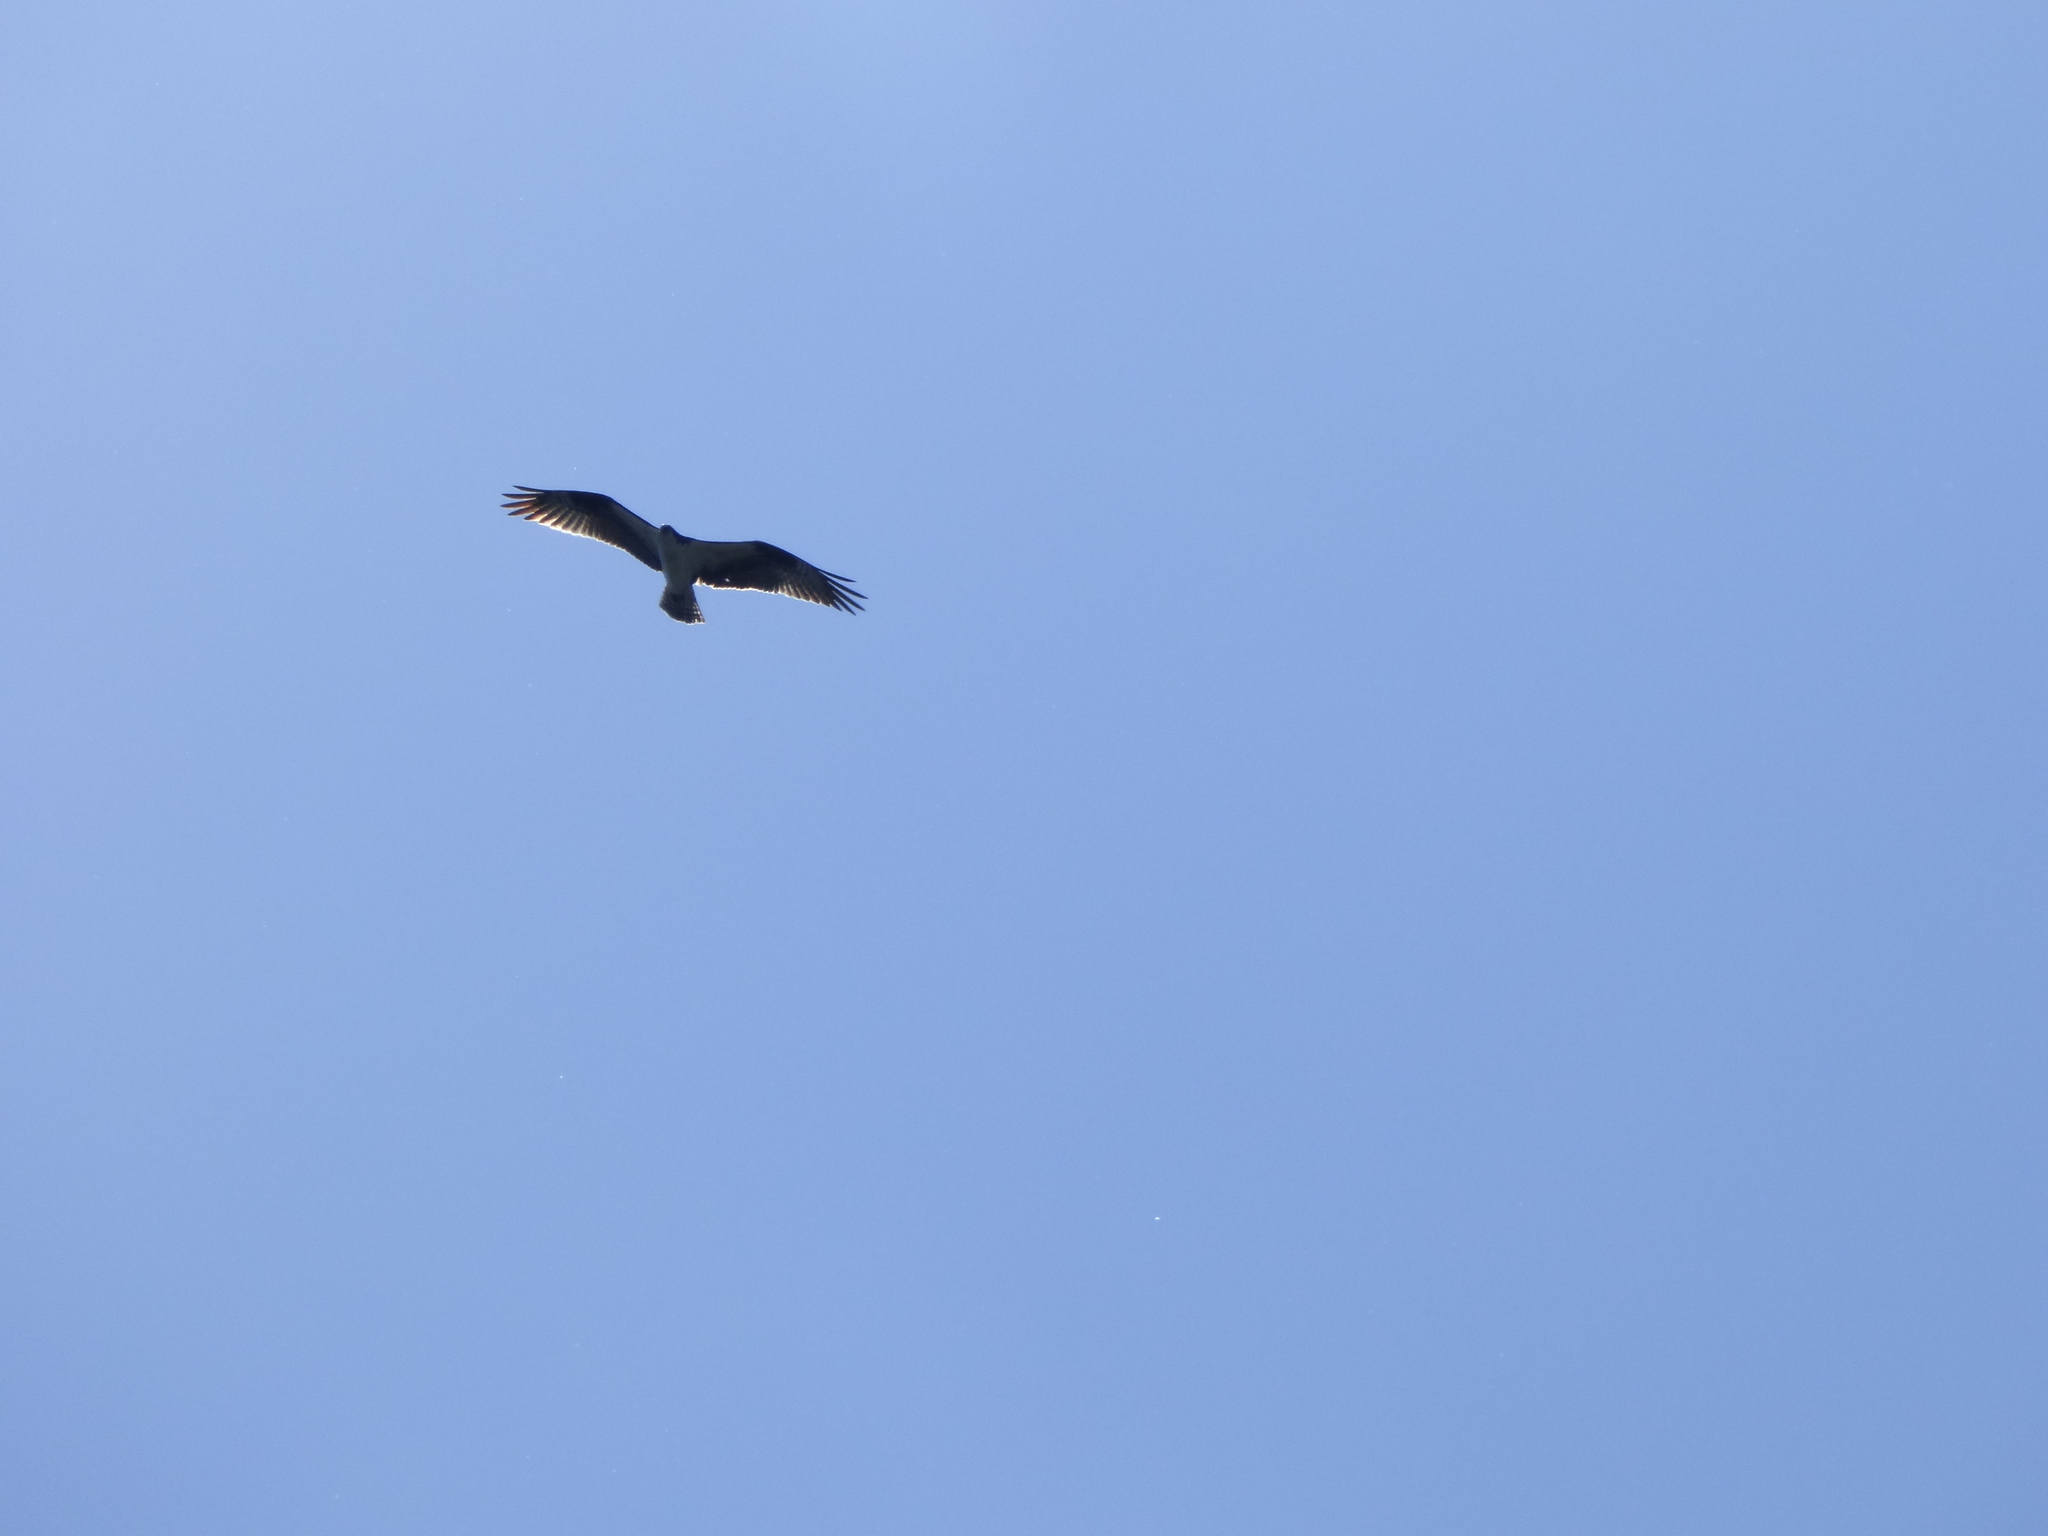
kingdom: Animalia
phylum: Chordata
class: Aves
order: Accipitriformes
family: Pandionidae
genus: Pandion
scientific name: Pandion haliaetus
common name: Osprey
